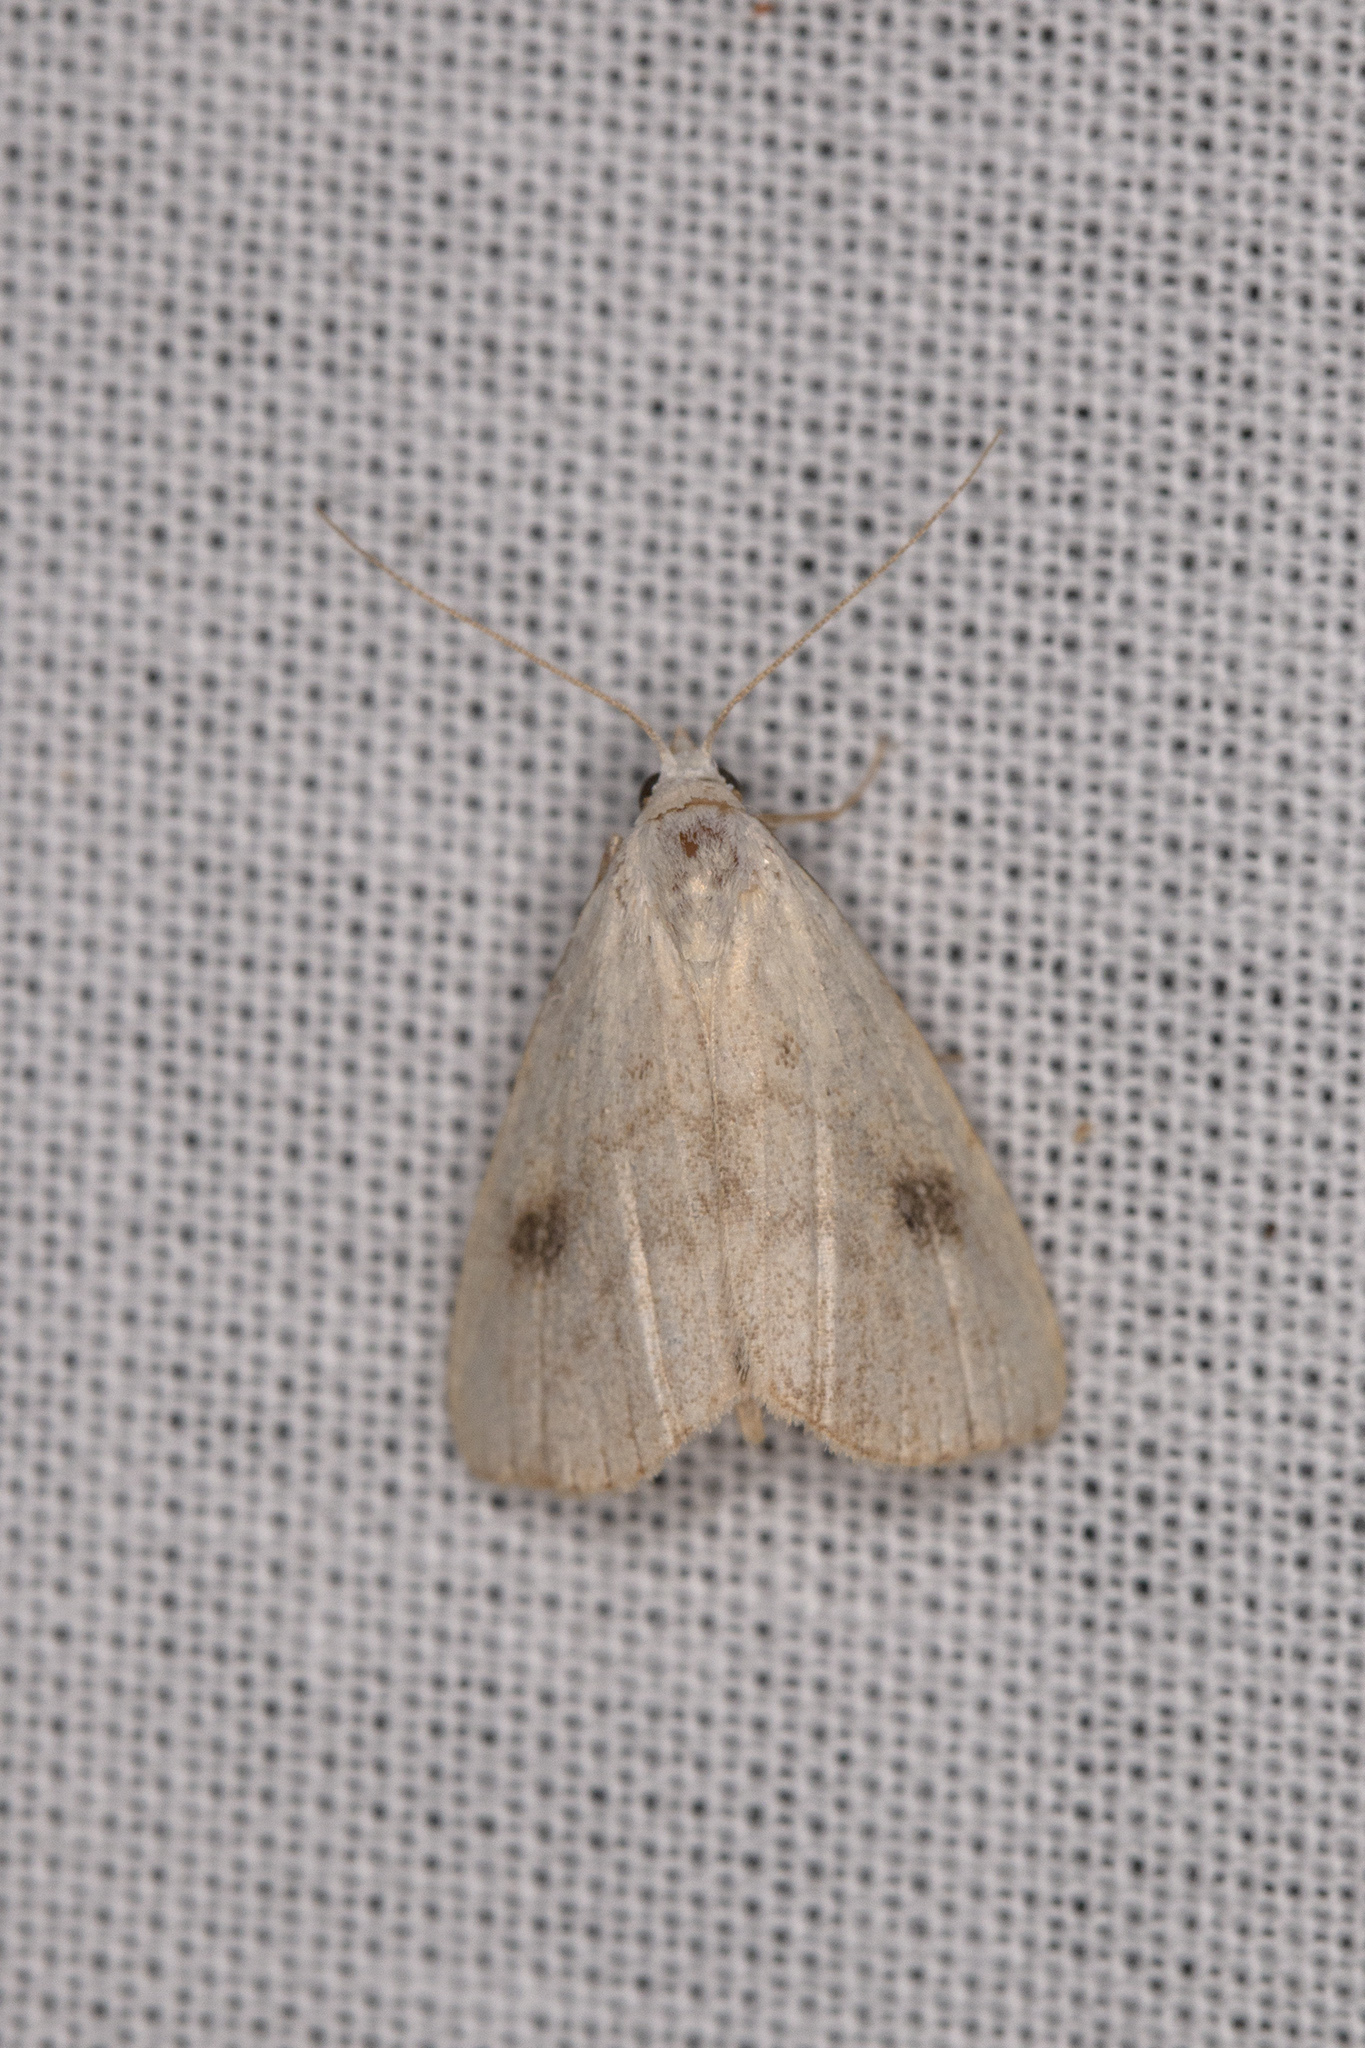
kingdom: Animalia
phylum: Arthropoda
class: Insecta
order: Lepidoptera
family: Erebidae
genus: Rivula
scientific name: Rivula sericealis
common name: Straw dot
